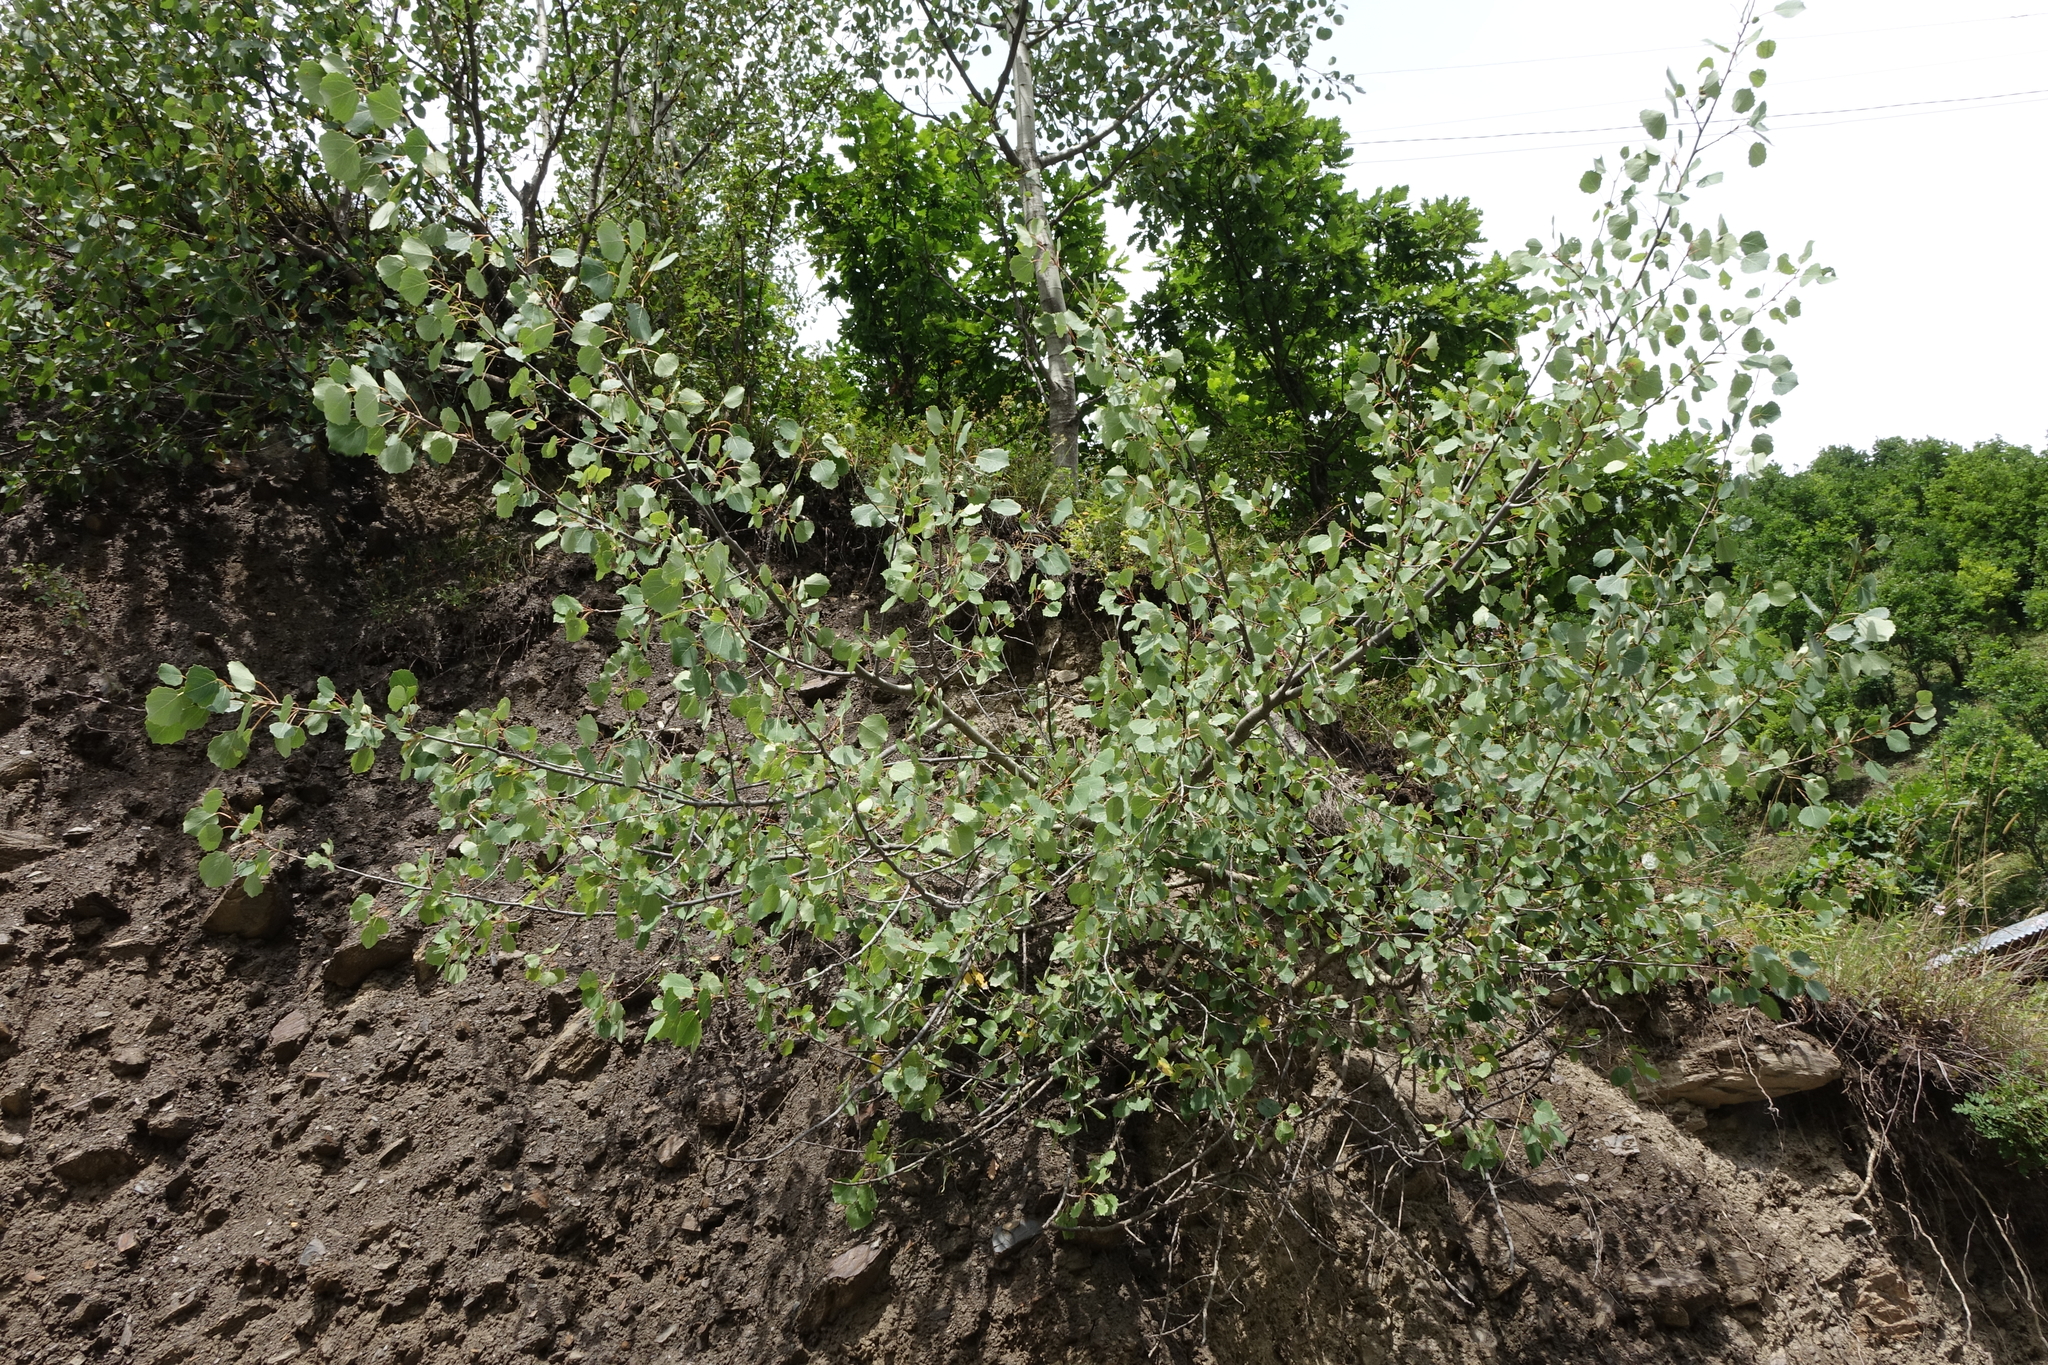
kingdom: Plantae
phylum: Tracheophyta
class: Magnoliopsida
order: Malpighiales
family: Salicaceae
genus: Populus
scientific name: Populus tremula
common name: European aspen
